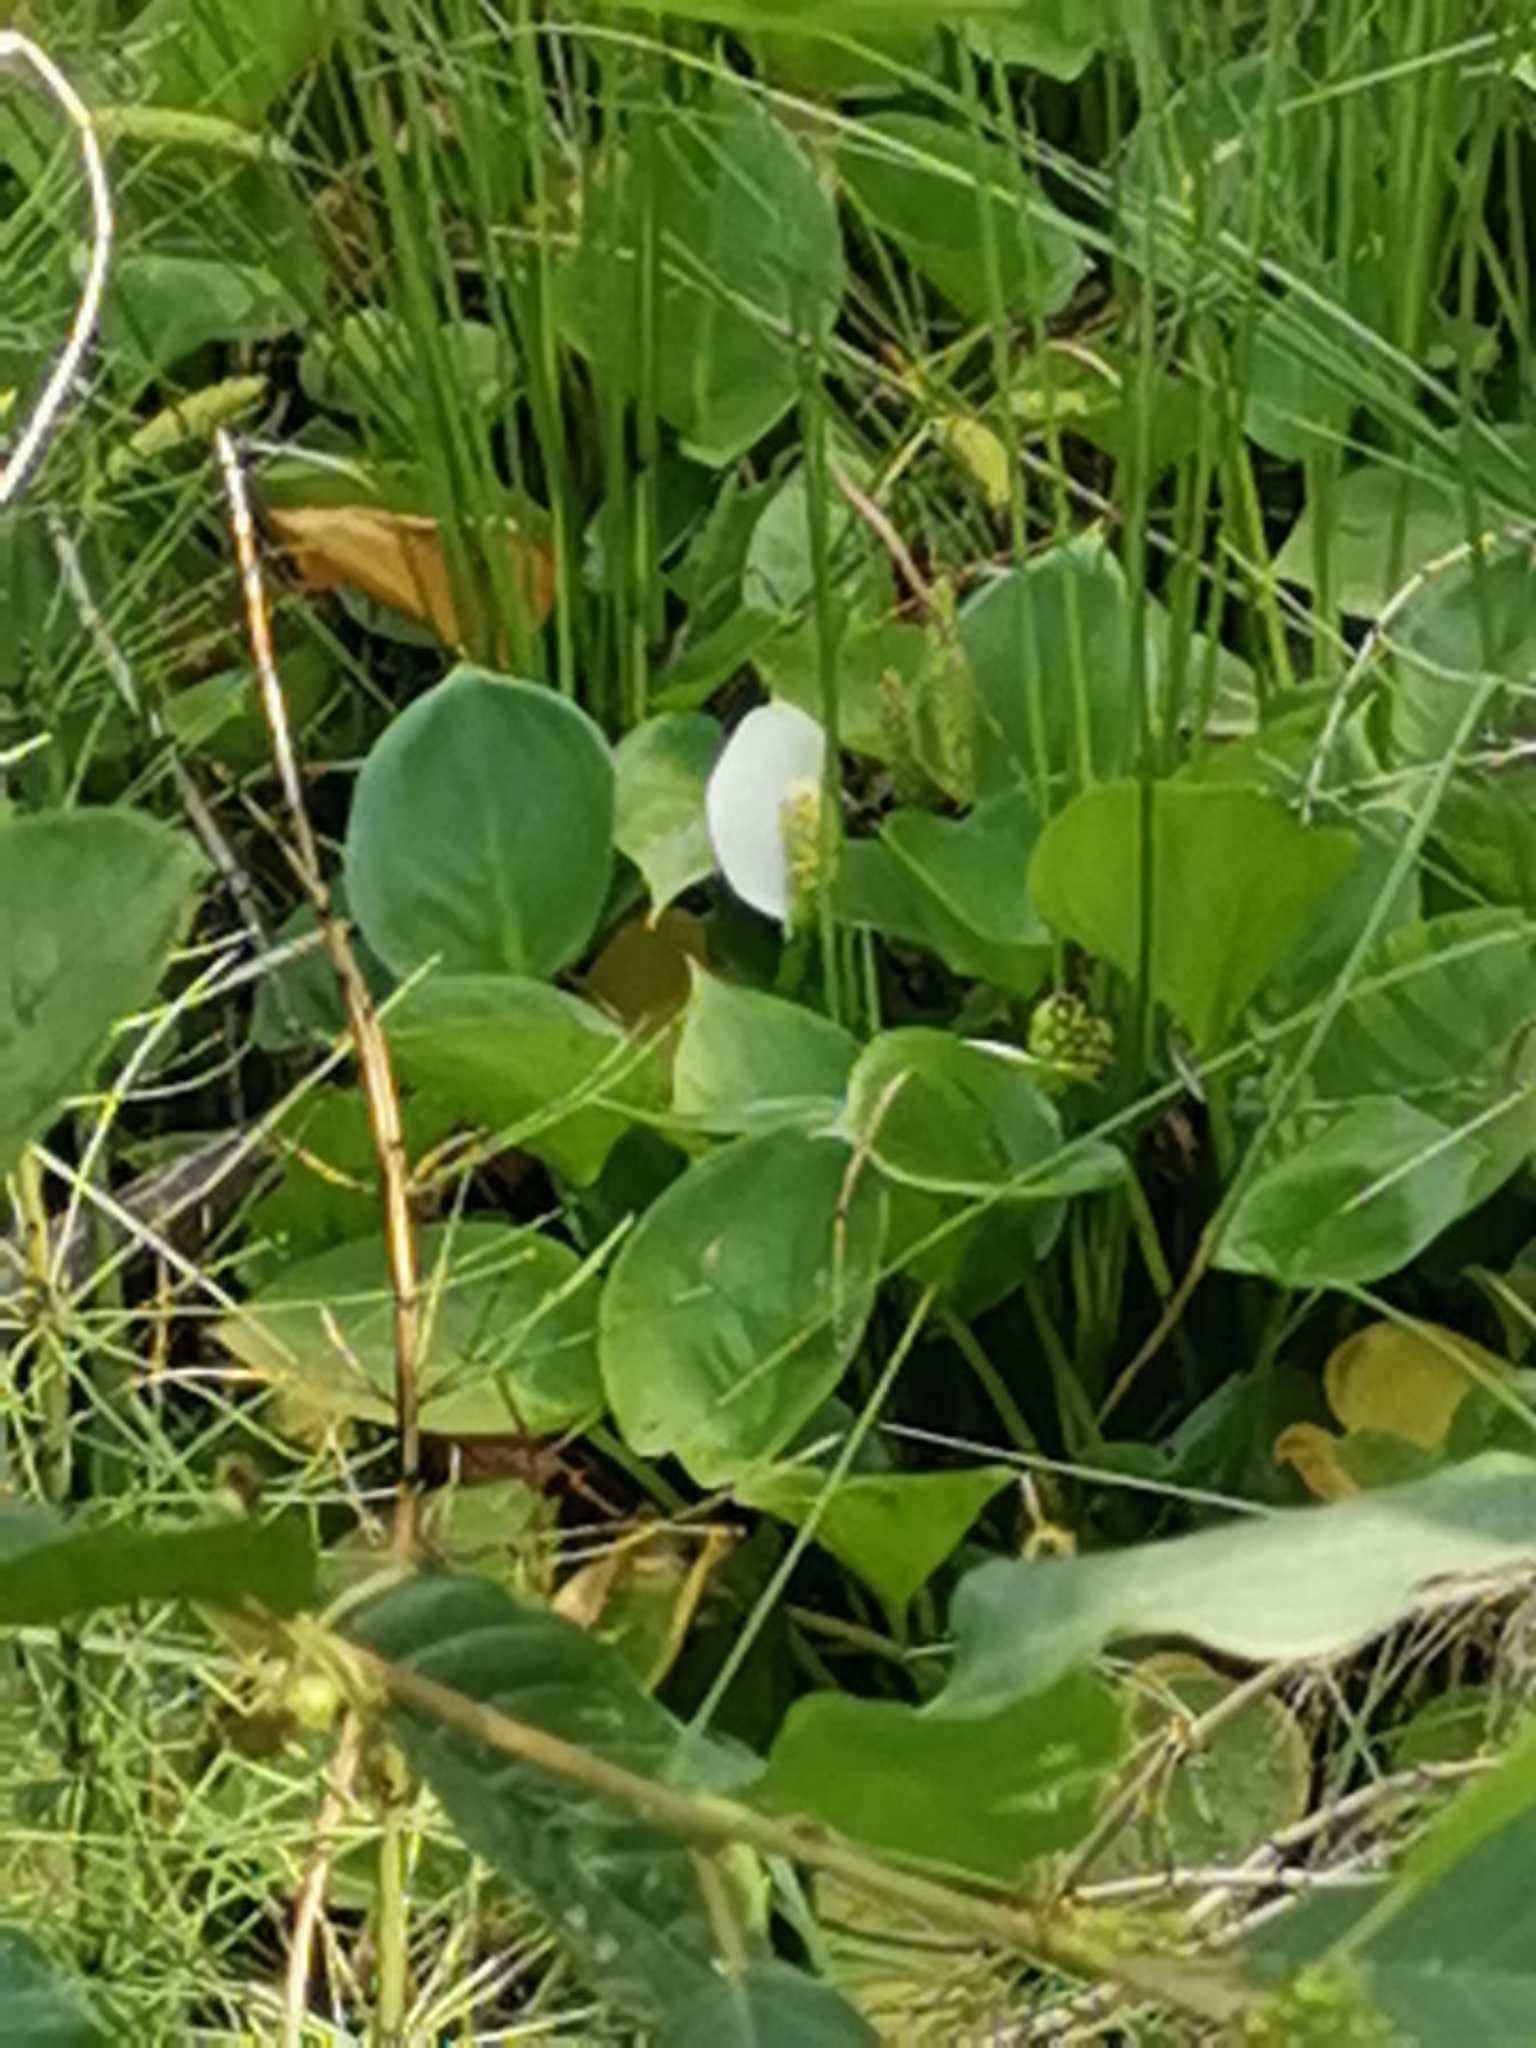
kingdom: Plantae
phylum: Tracheophyta
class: Liliopsida
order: Alismatales
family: Araceae
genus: Calla
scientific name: Calla palustris
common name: Bog arum
